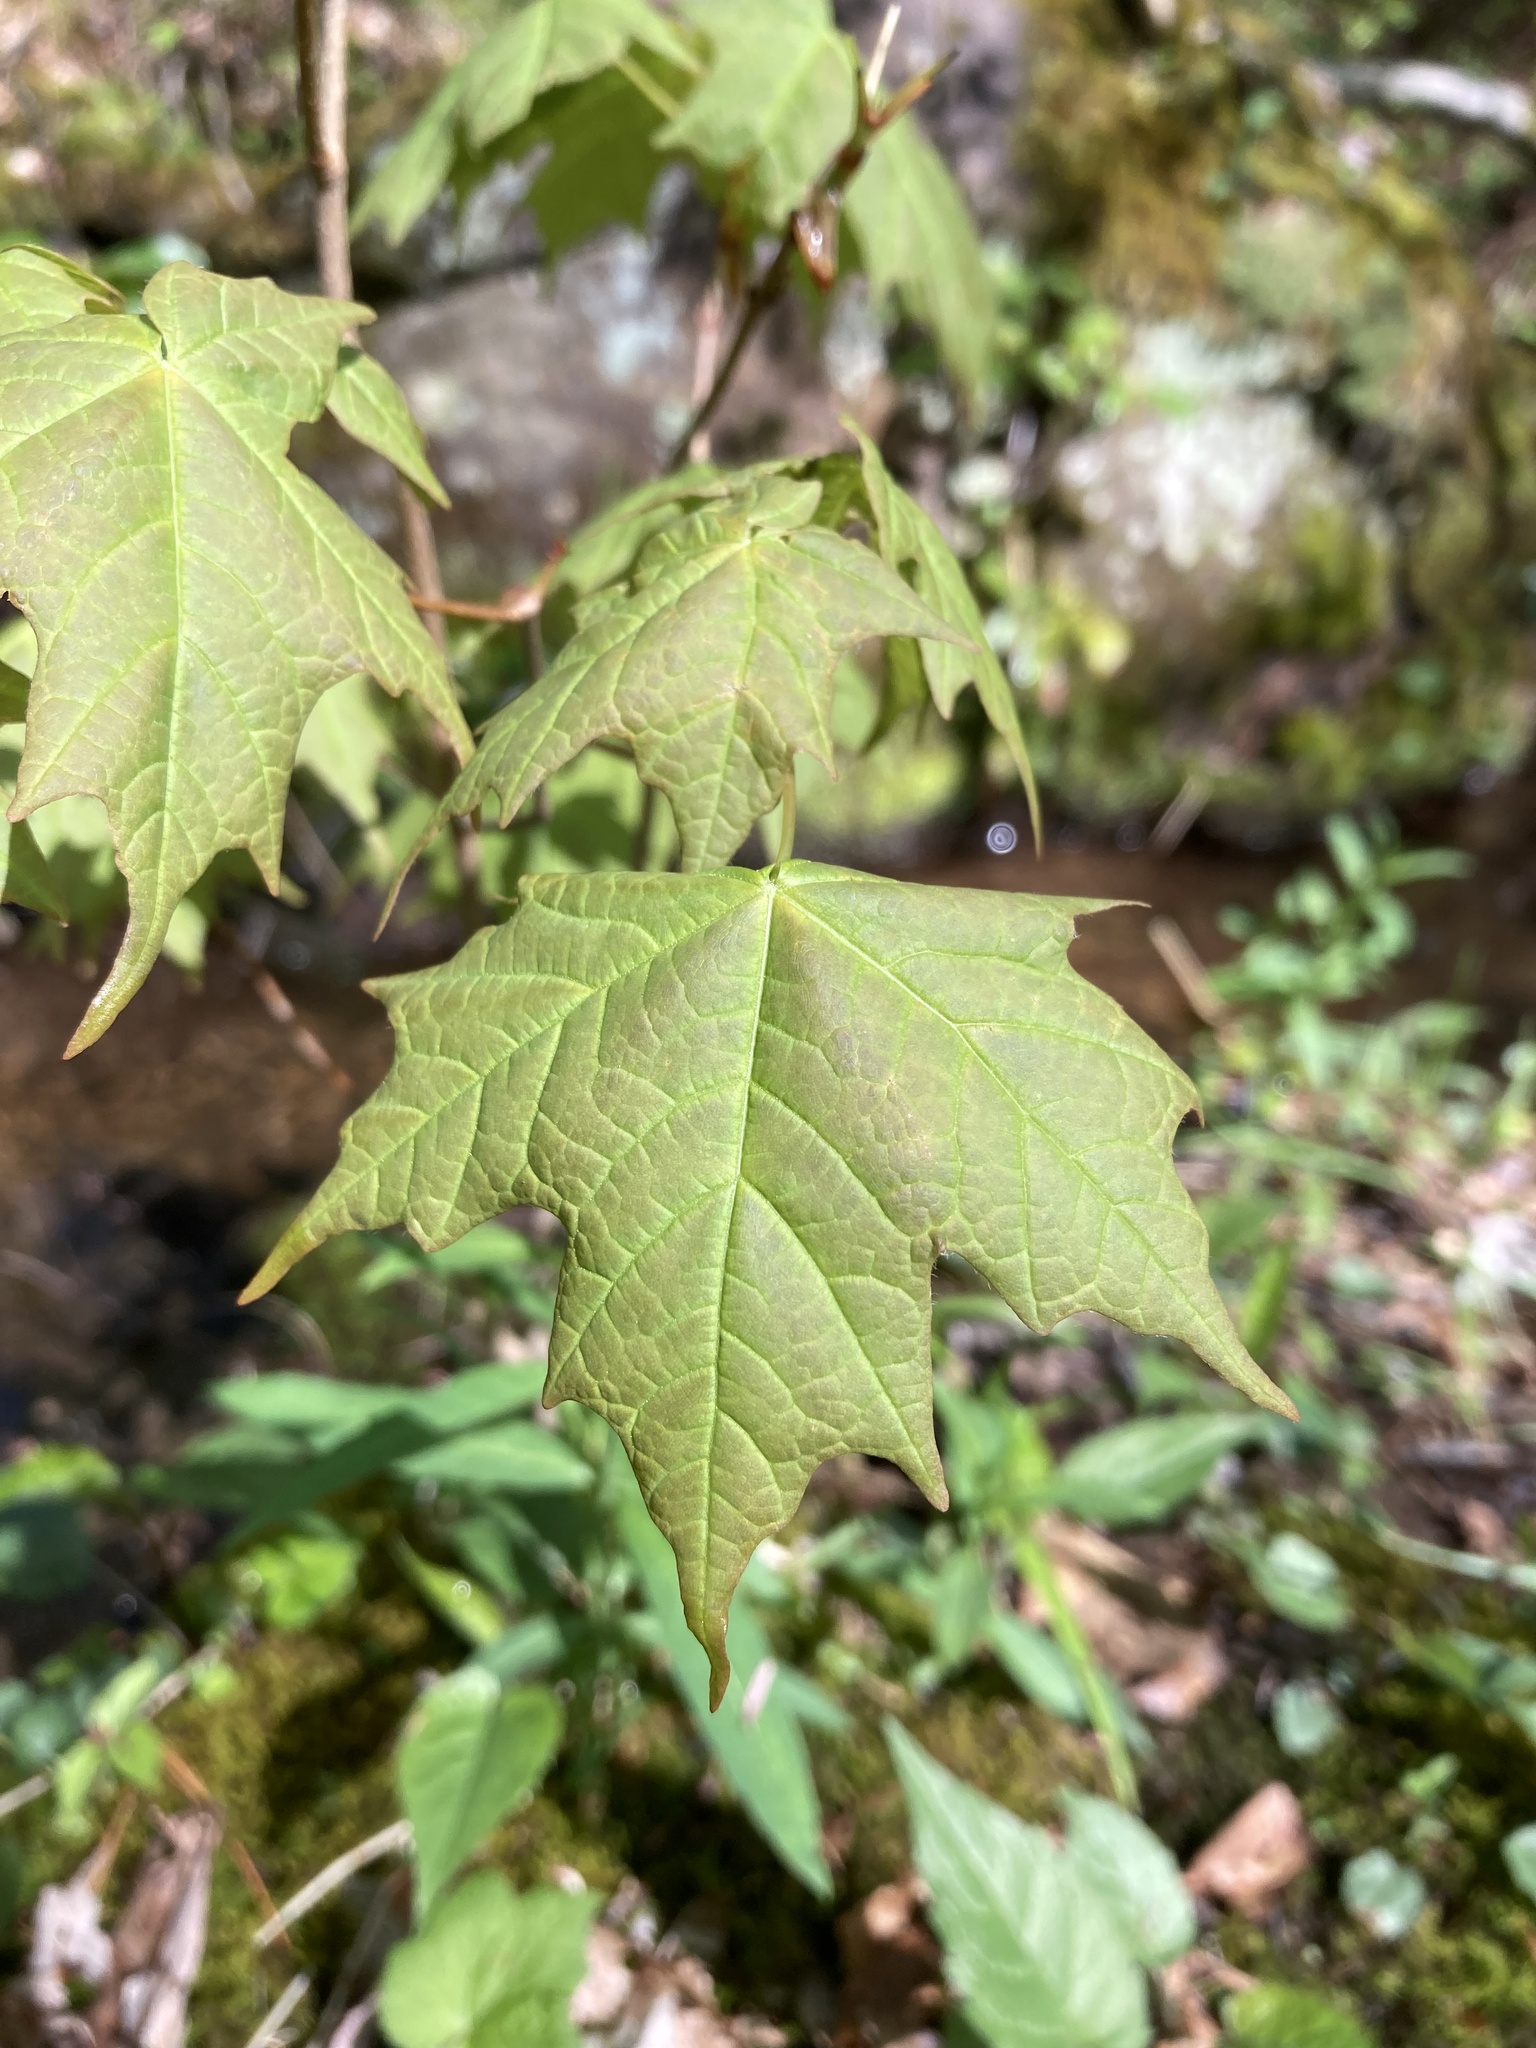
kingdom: Plantae
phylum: Tracheophyta
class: Magnoliopsida
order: Sapindales
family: Sapindaceae
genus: Acer
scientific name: Acer nigrum
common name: Black maple
